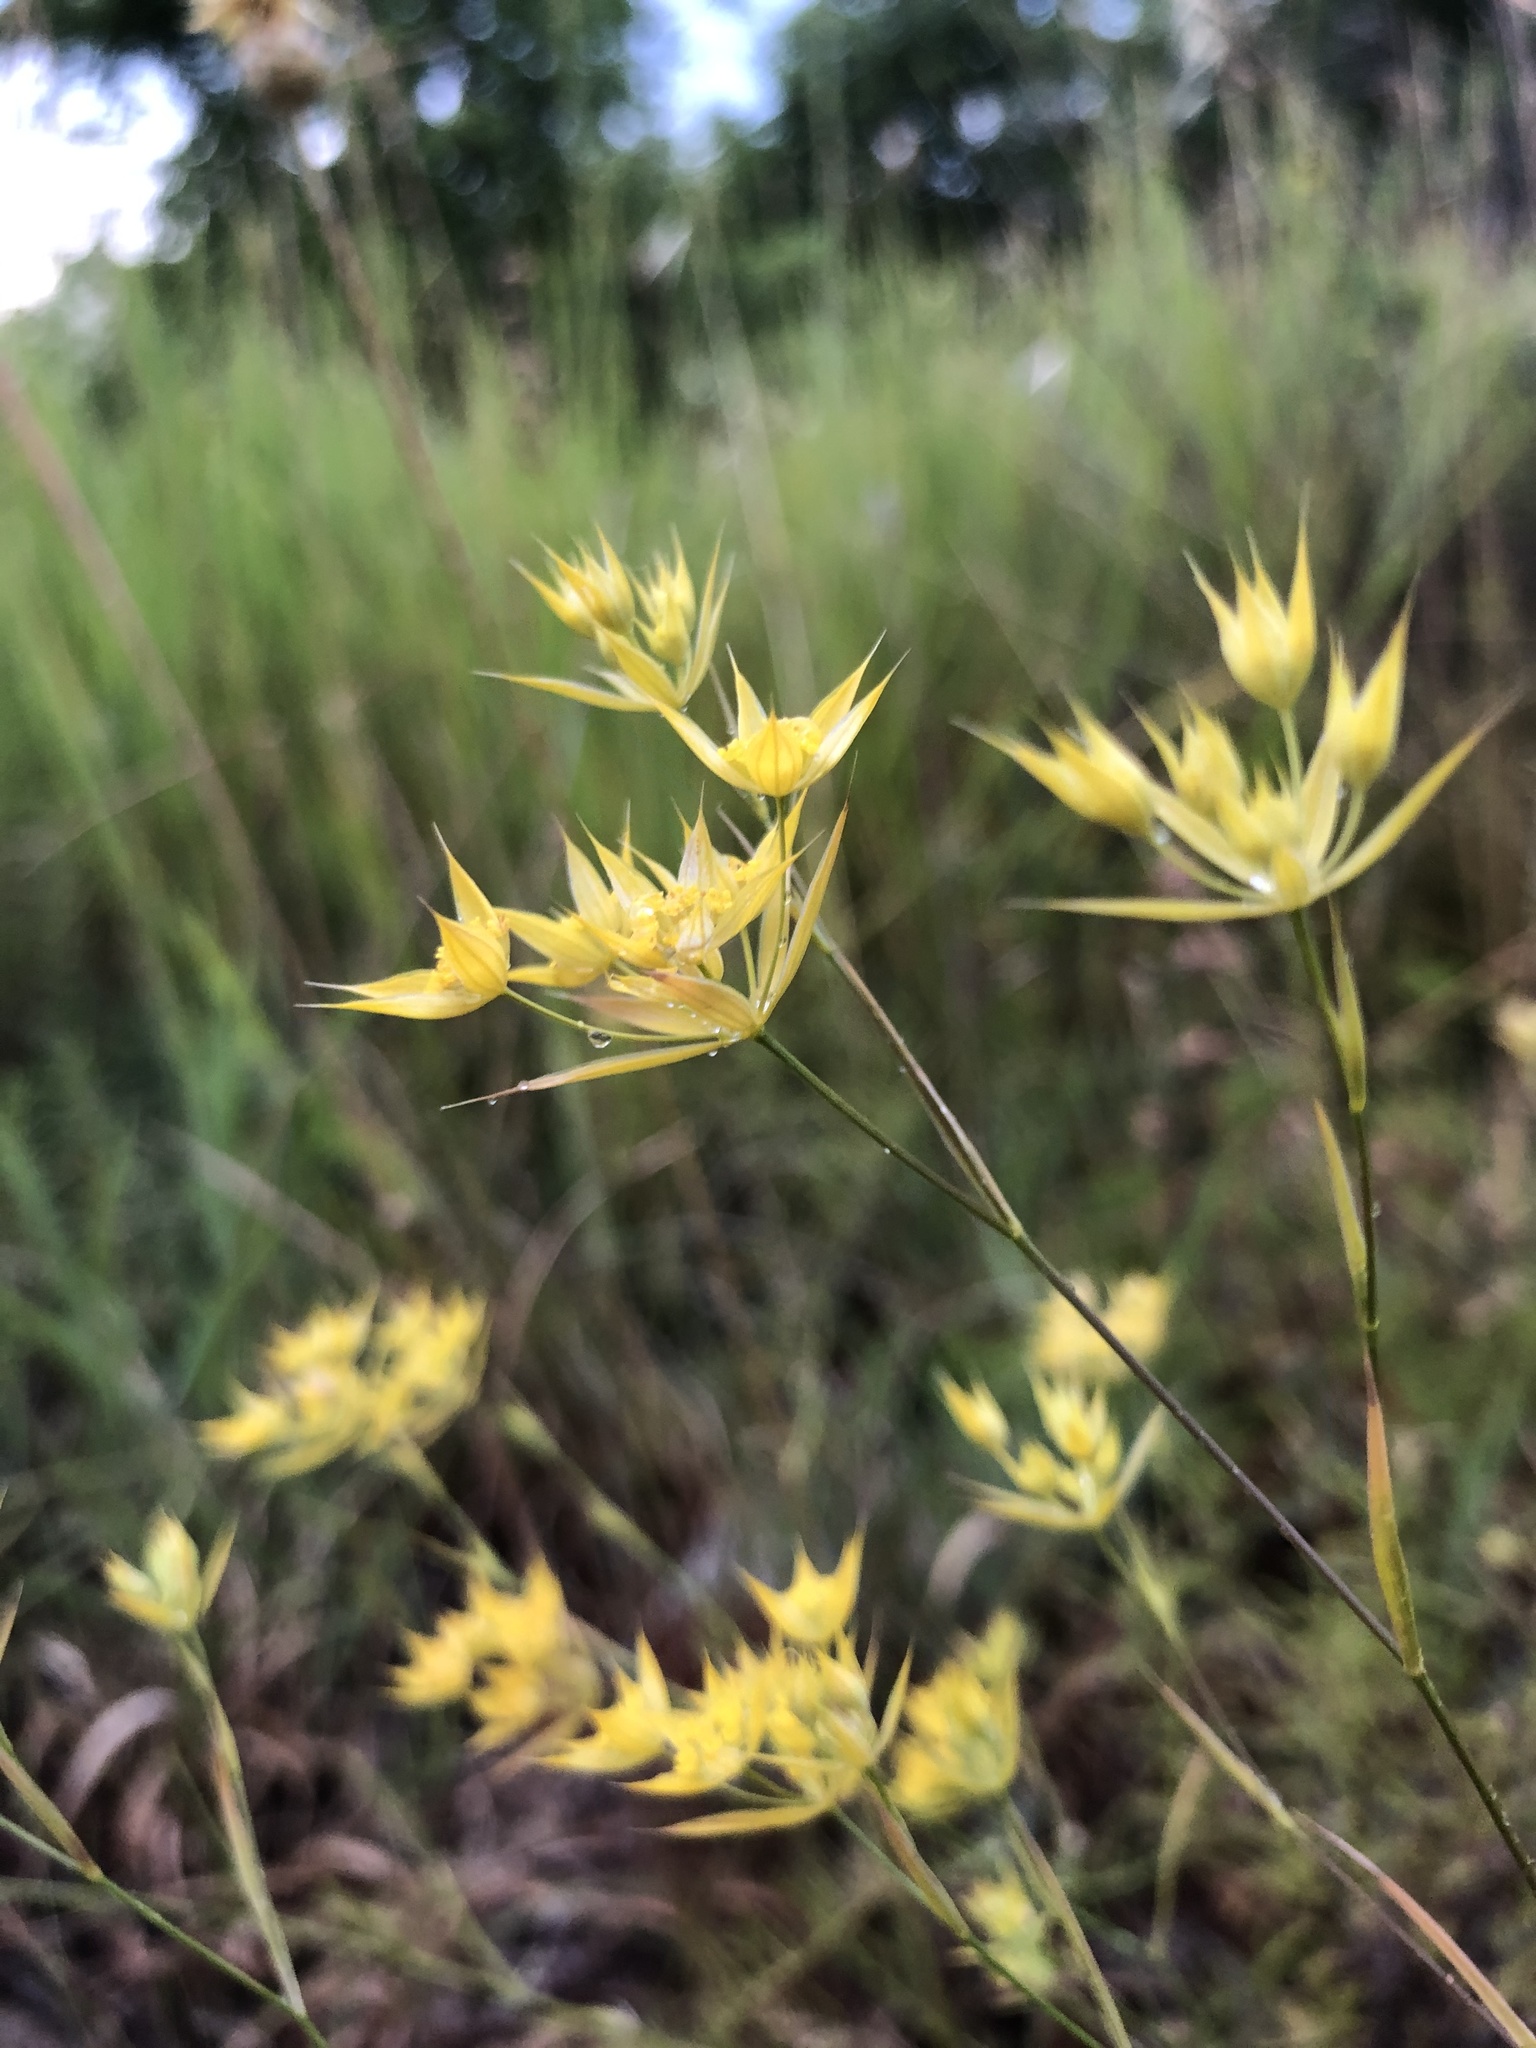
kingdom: Plantae
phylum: Tracheophyta
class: Magnoliopsida
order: Apiales
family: Apiaceae
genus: Bupleurum
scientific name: Bupleurum veronense
